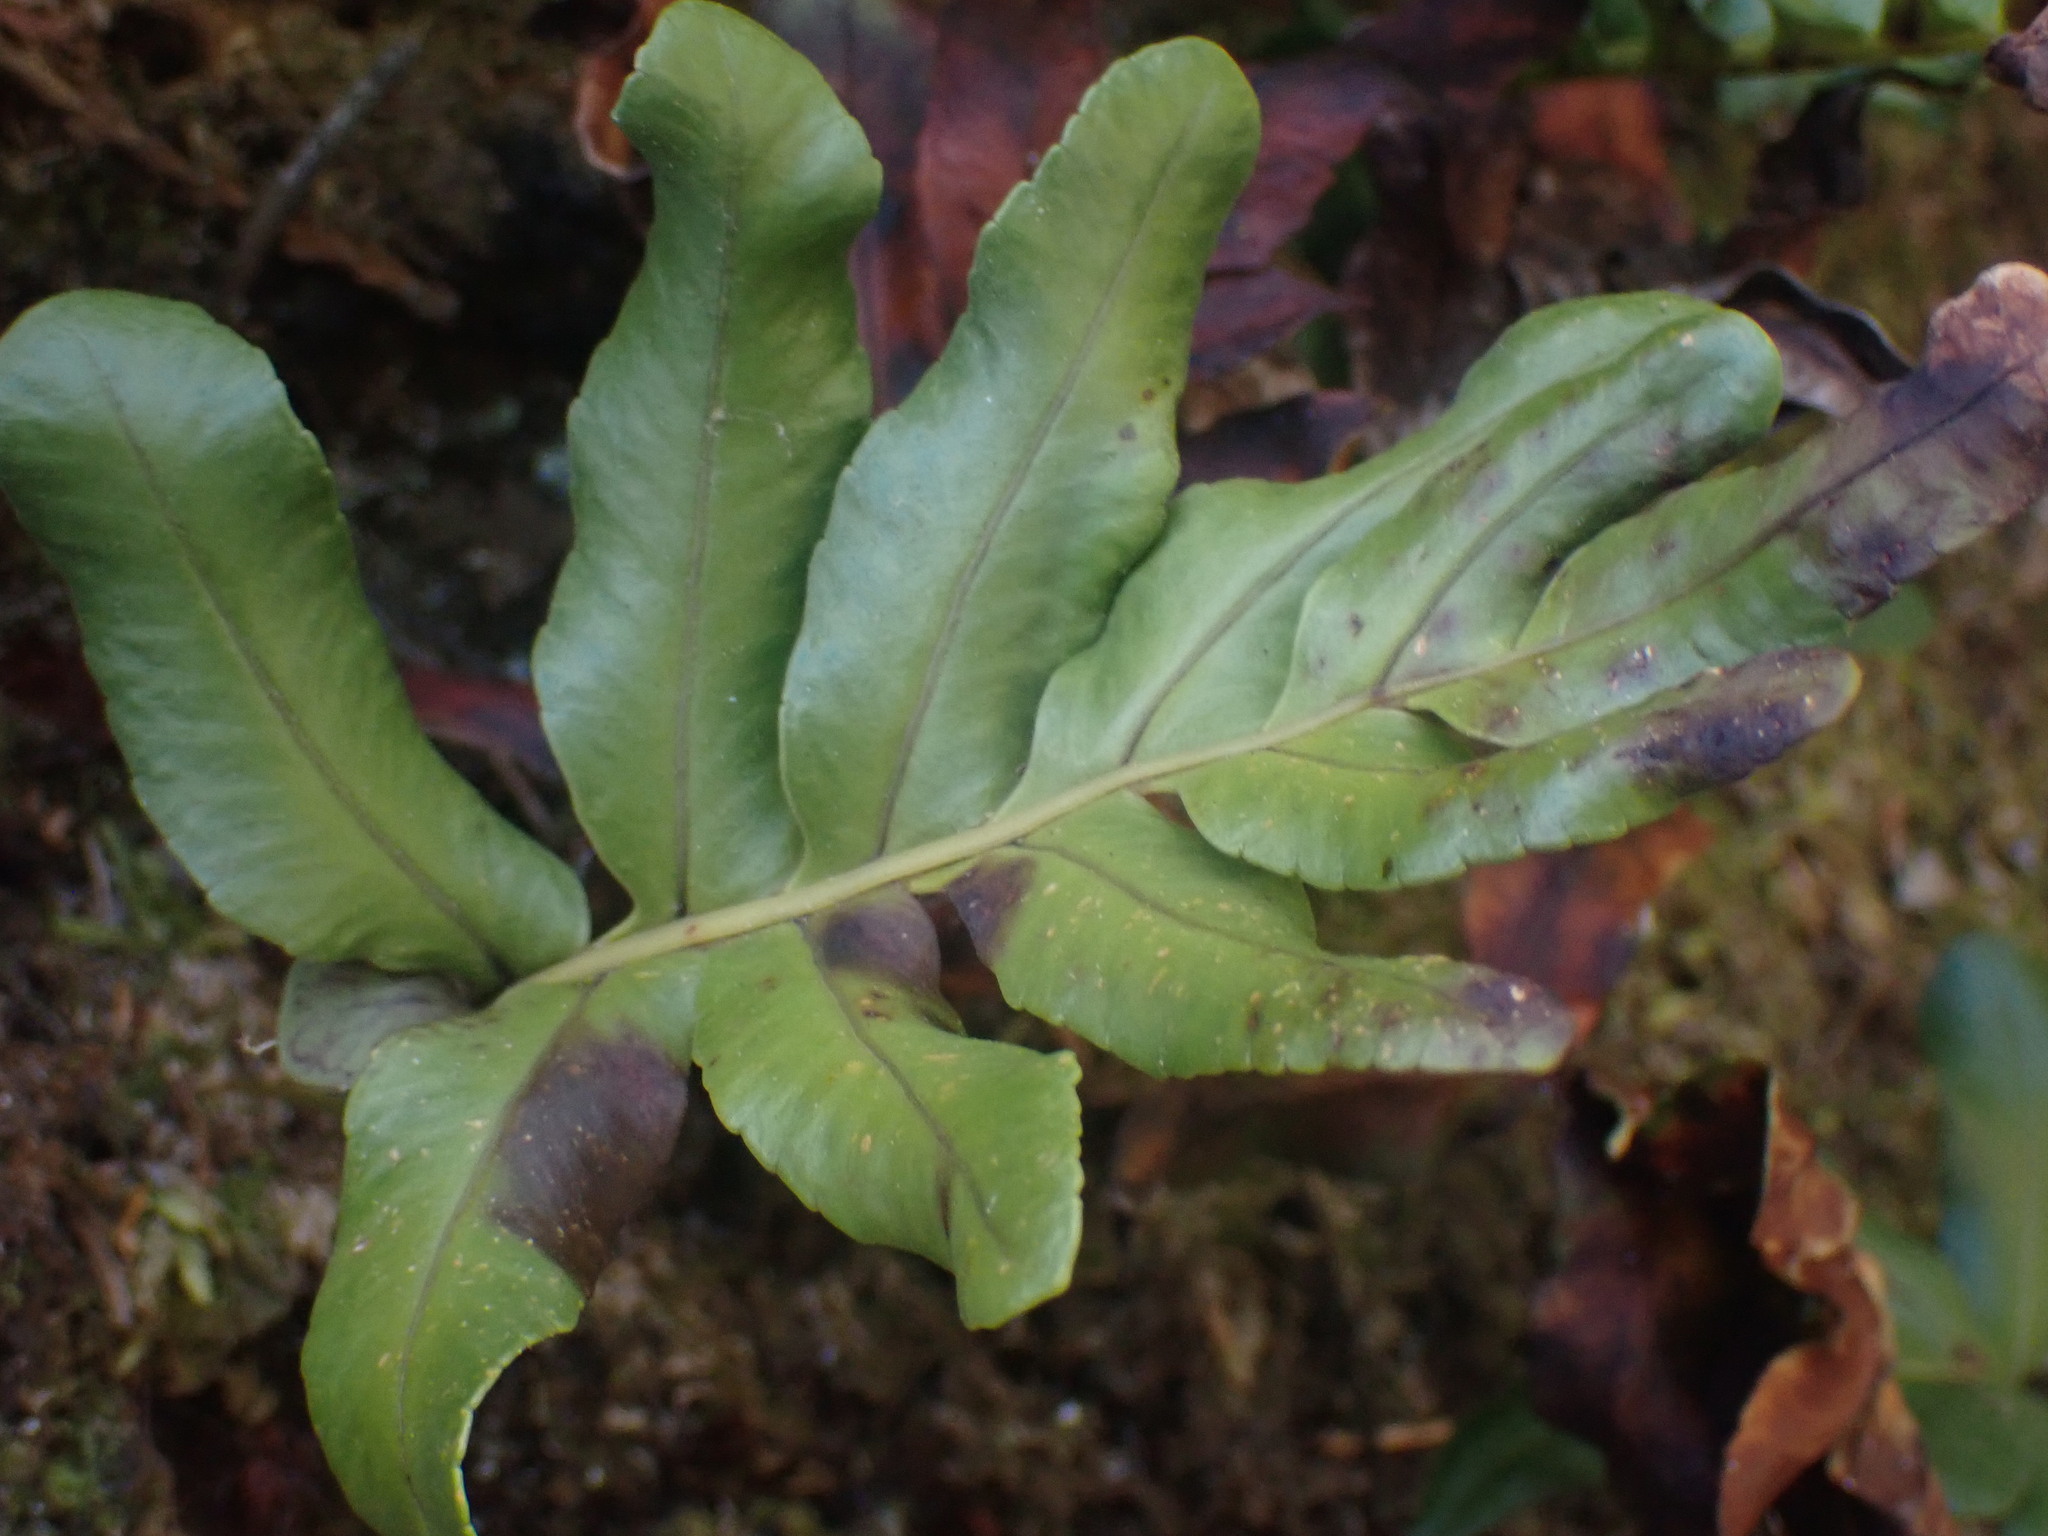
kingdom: Plantae
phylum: Tracheophyta
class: Polypodiopsida
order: Polypodiales
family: Polypodiaceae
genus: Polypodium
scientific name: Polypodium scouleri
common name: Scouler's polypody
